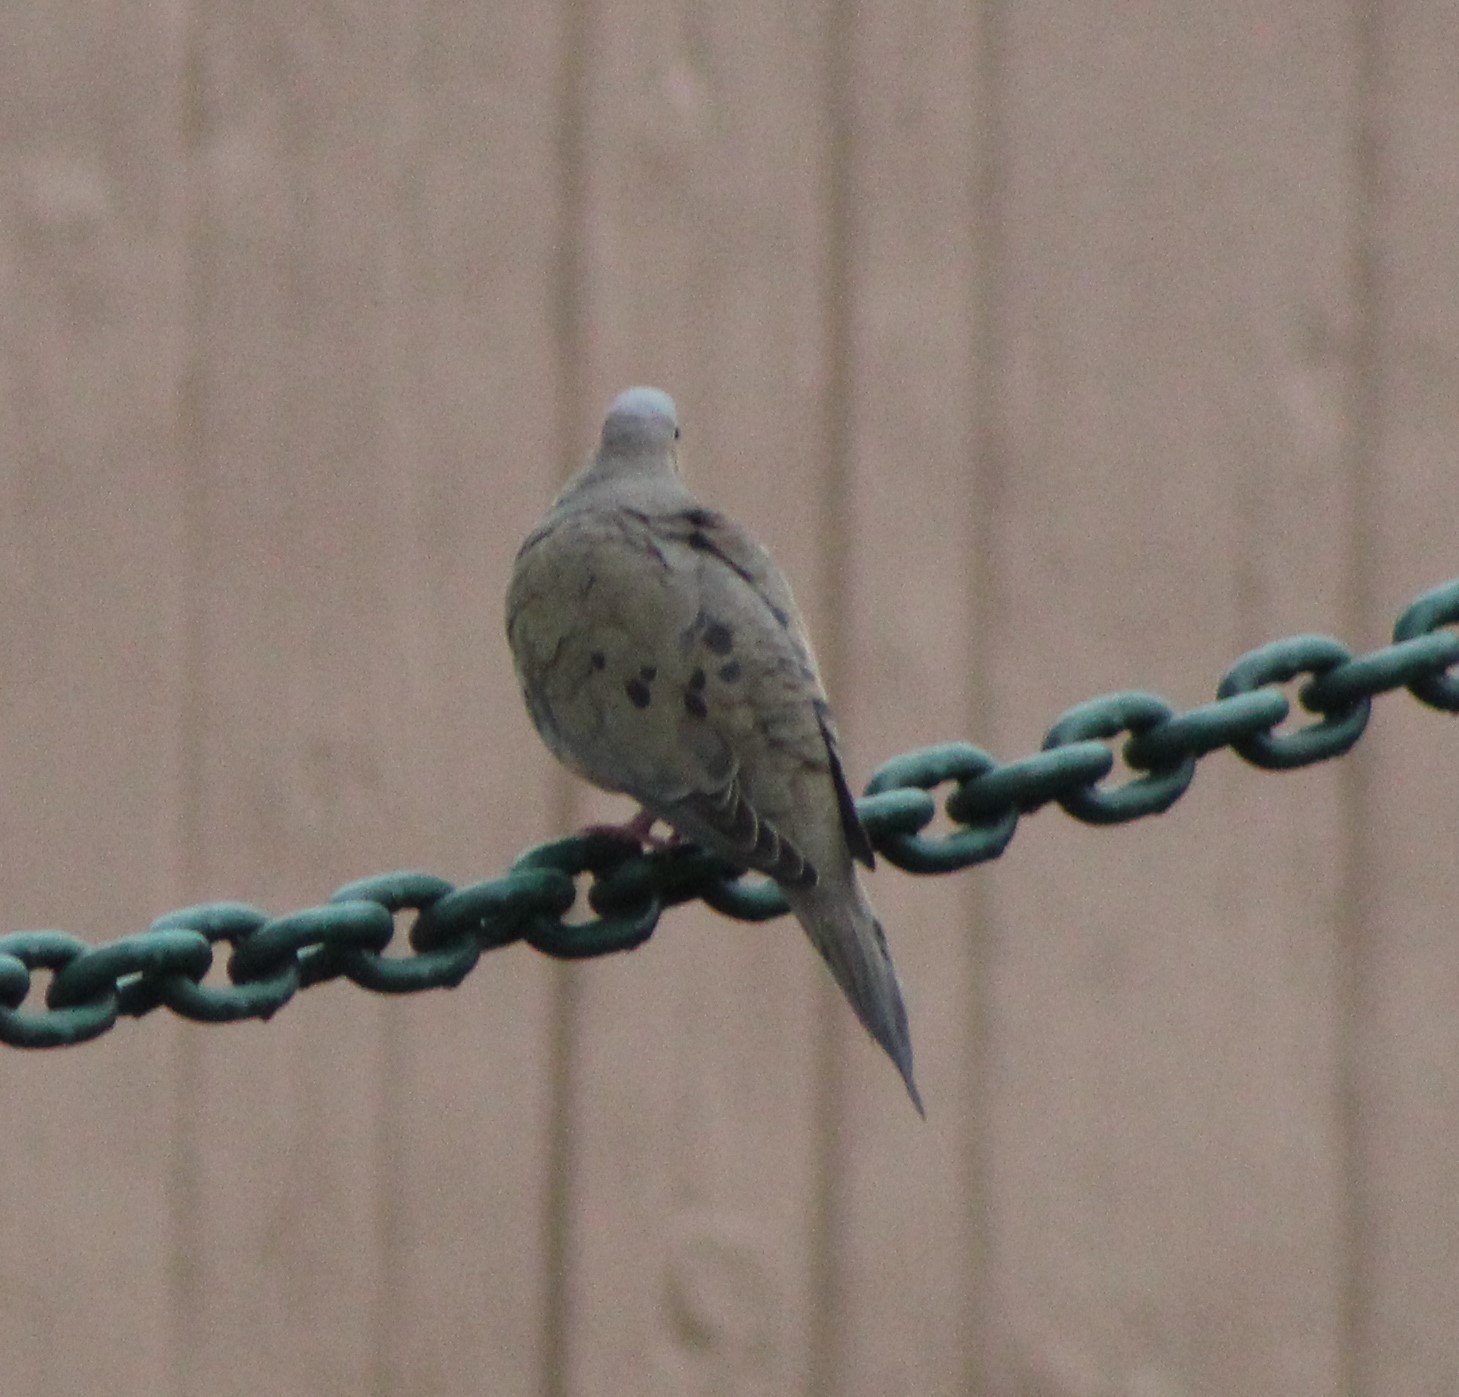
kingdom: Animalia
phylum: Chordata
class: Aves
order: Columbiformes
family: Columbidae
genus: Zenaida
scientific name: Zenaida macroura
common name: Mourning dove
